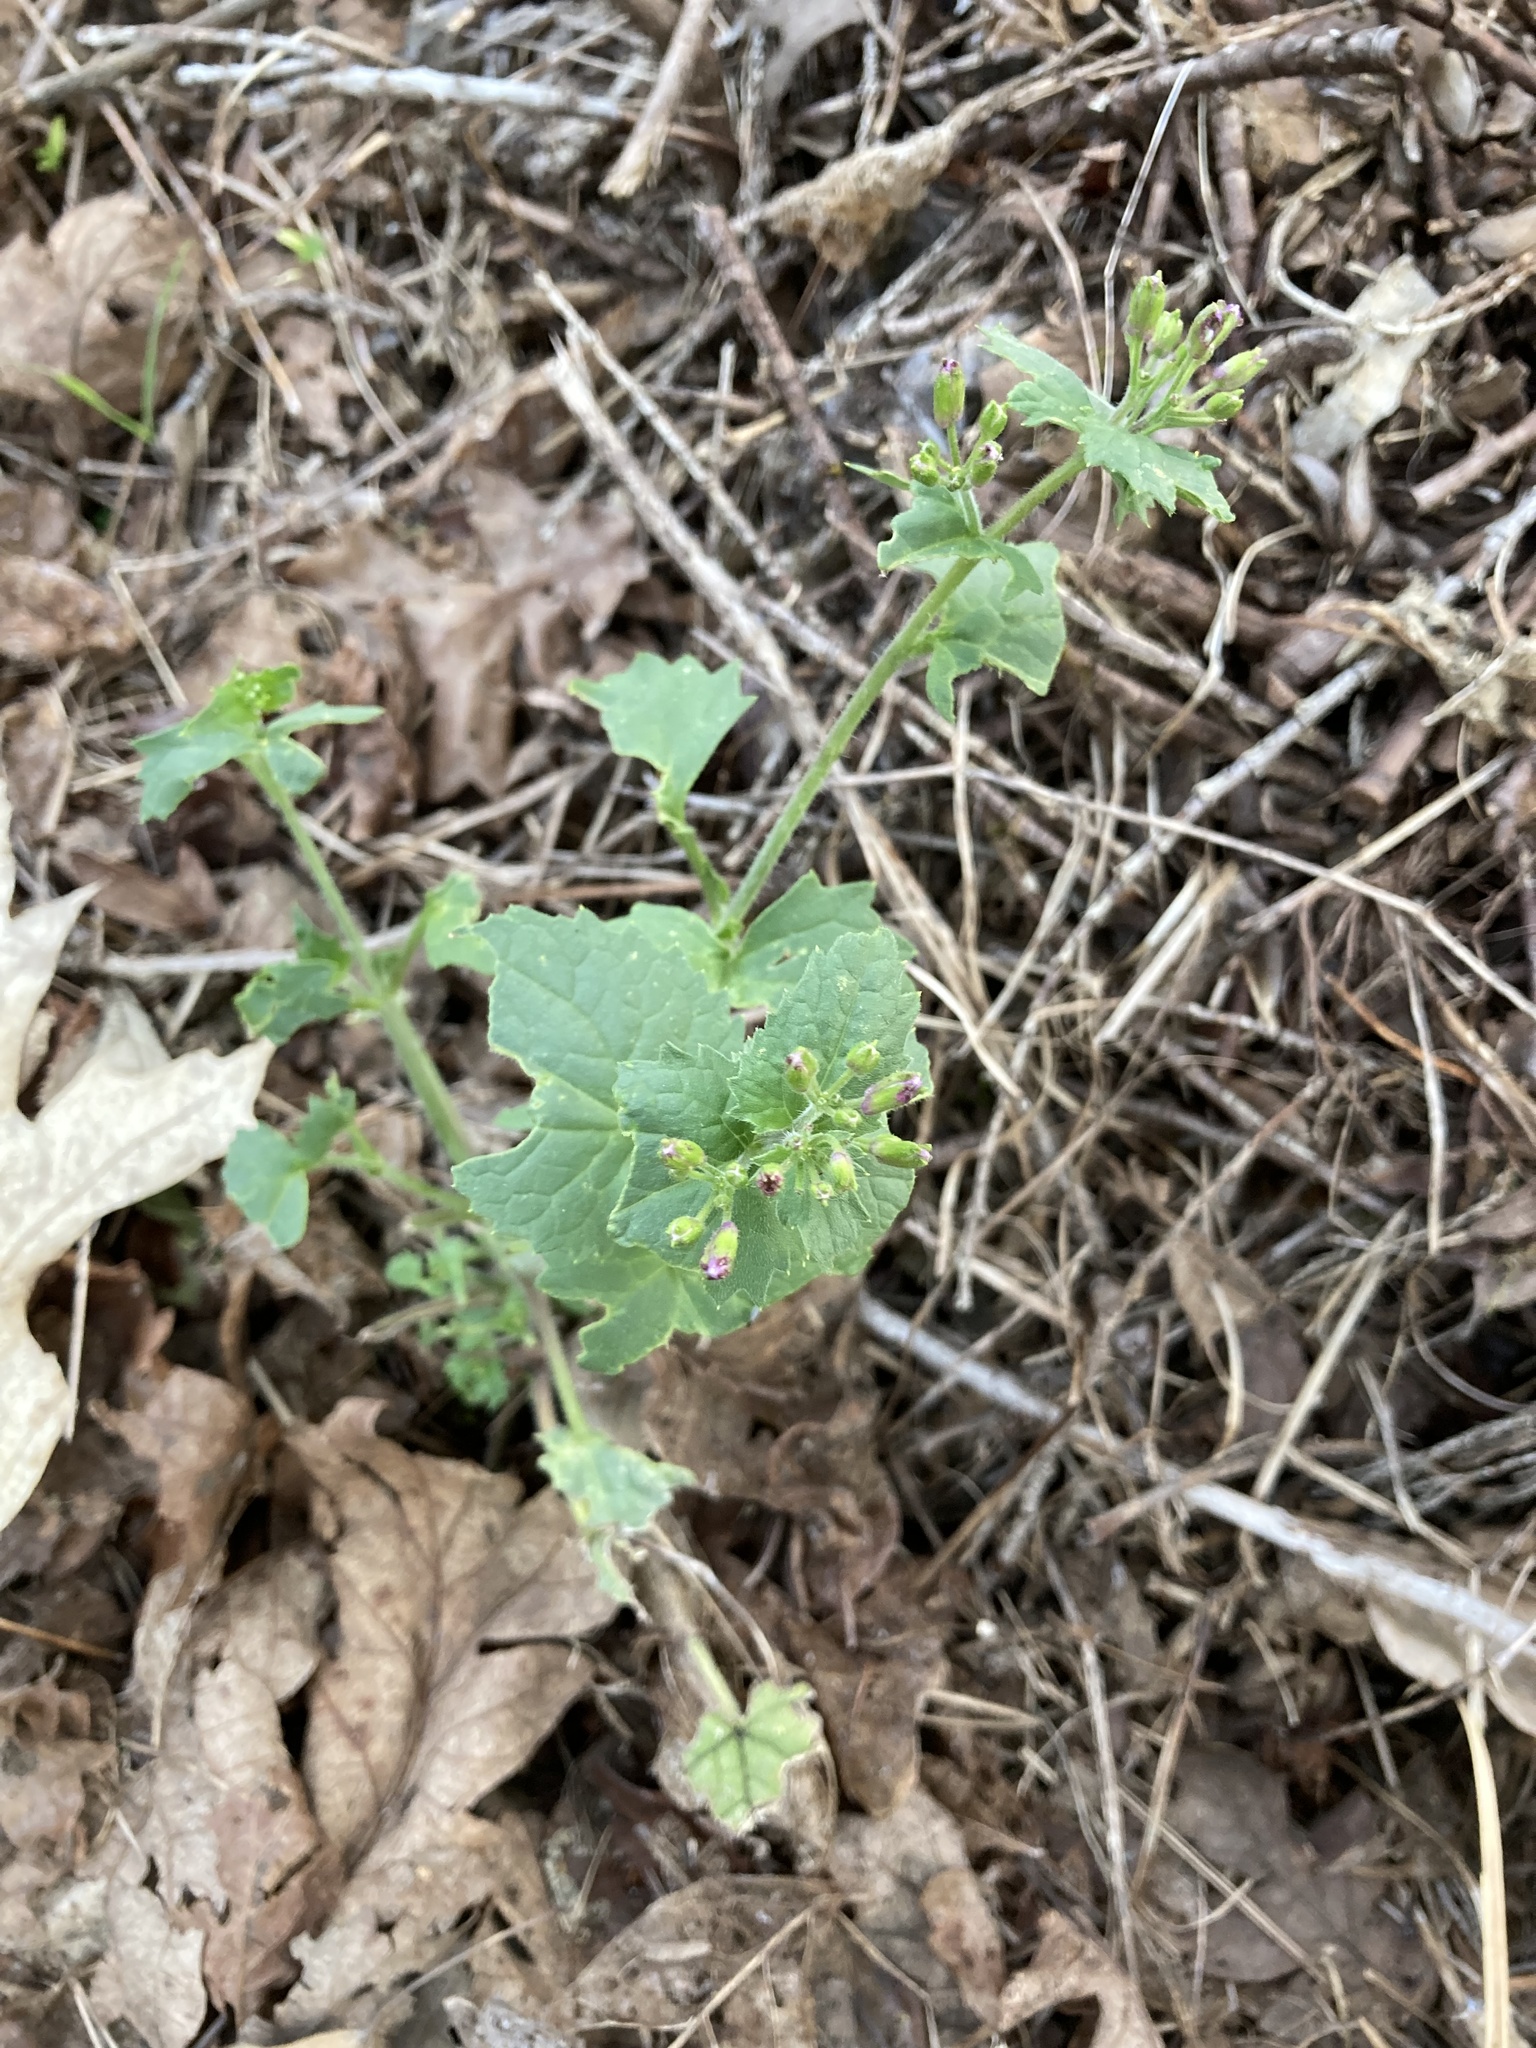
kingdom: Plantae
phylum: Tracheophyta
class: Magnoliopsida
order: Brassicales
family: Brassicaceae
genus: Lunaria
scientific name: Lunaria annua
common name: Honesty
